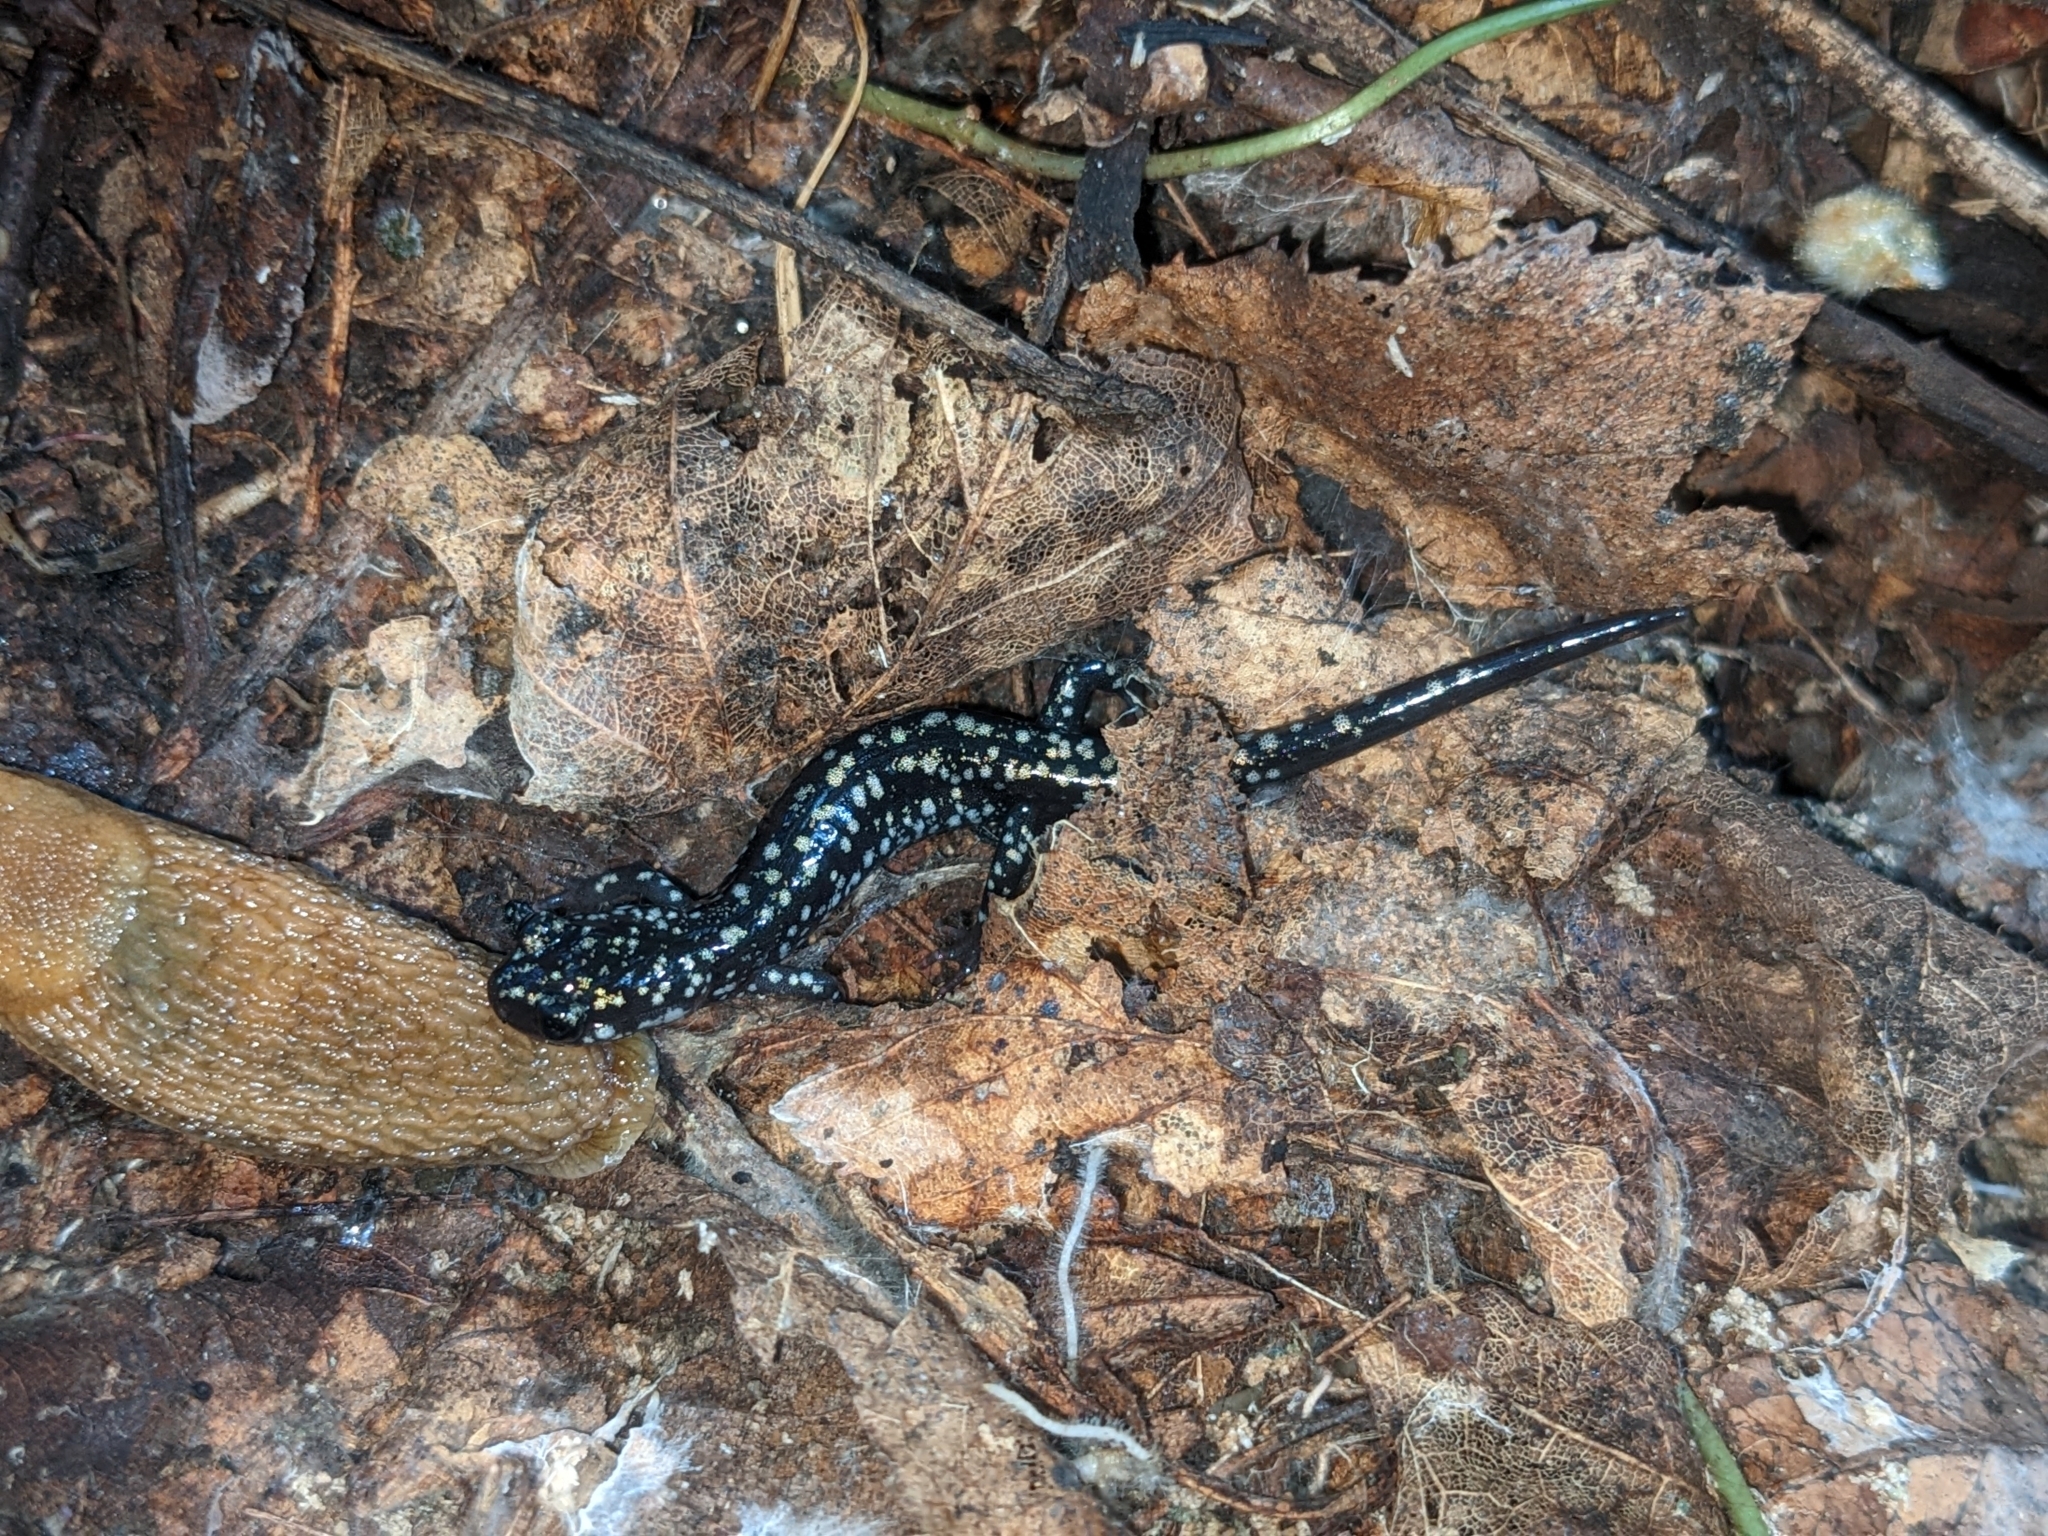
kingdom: Animalia
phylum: Chordata
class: Amphibia
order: Caudata
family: Plethodontidae
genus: Plethodon
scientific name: Plethodon glutinosus
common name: Northern slimy salamander
